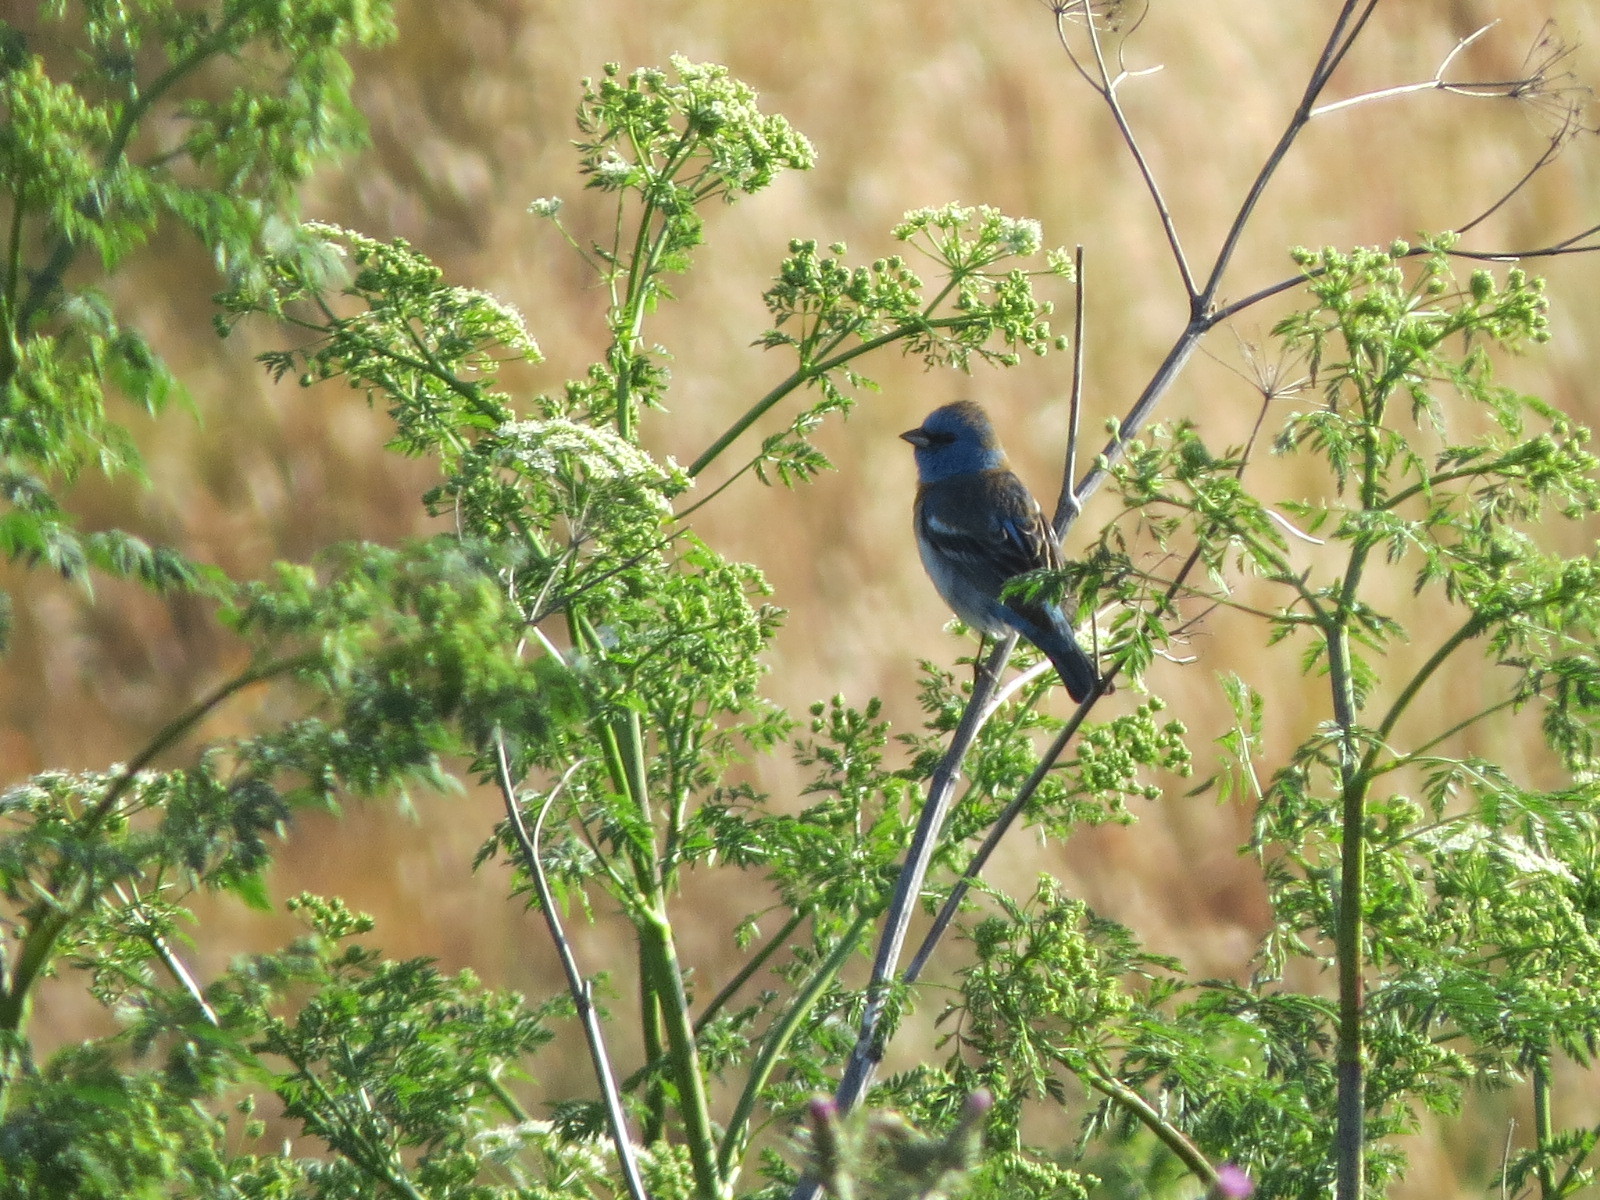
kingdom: Animalia
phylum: Chordata
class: Aves
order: Passeriformes
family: Cardinalidae
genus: Passerina
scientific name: Passerina amoena
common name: Lazuli bunting
